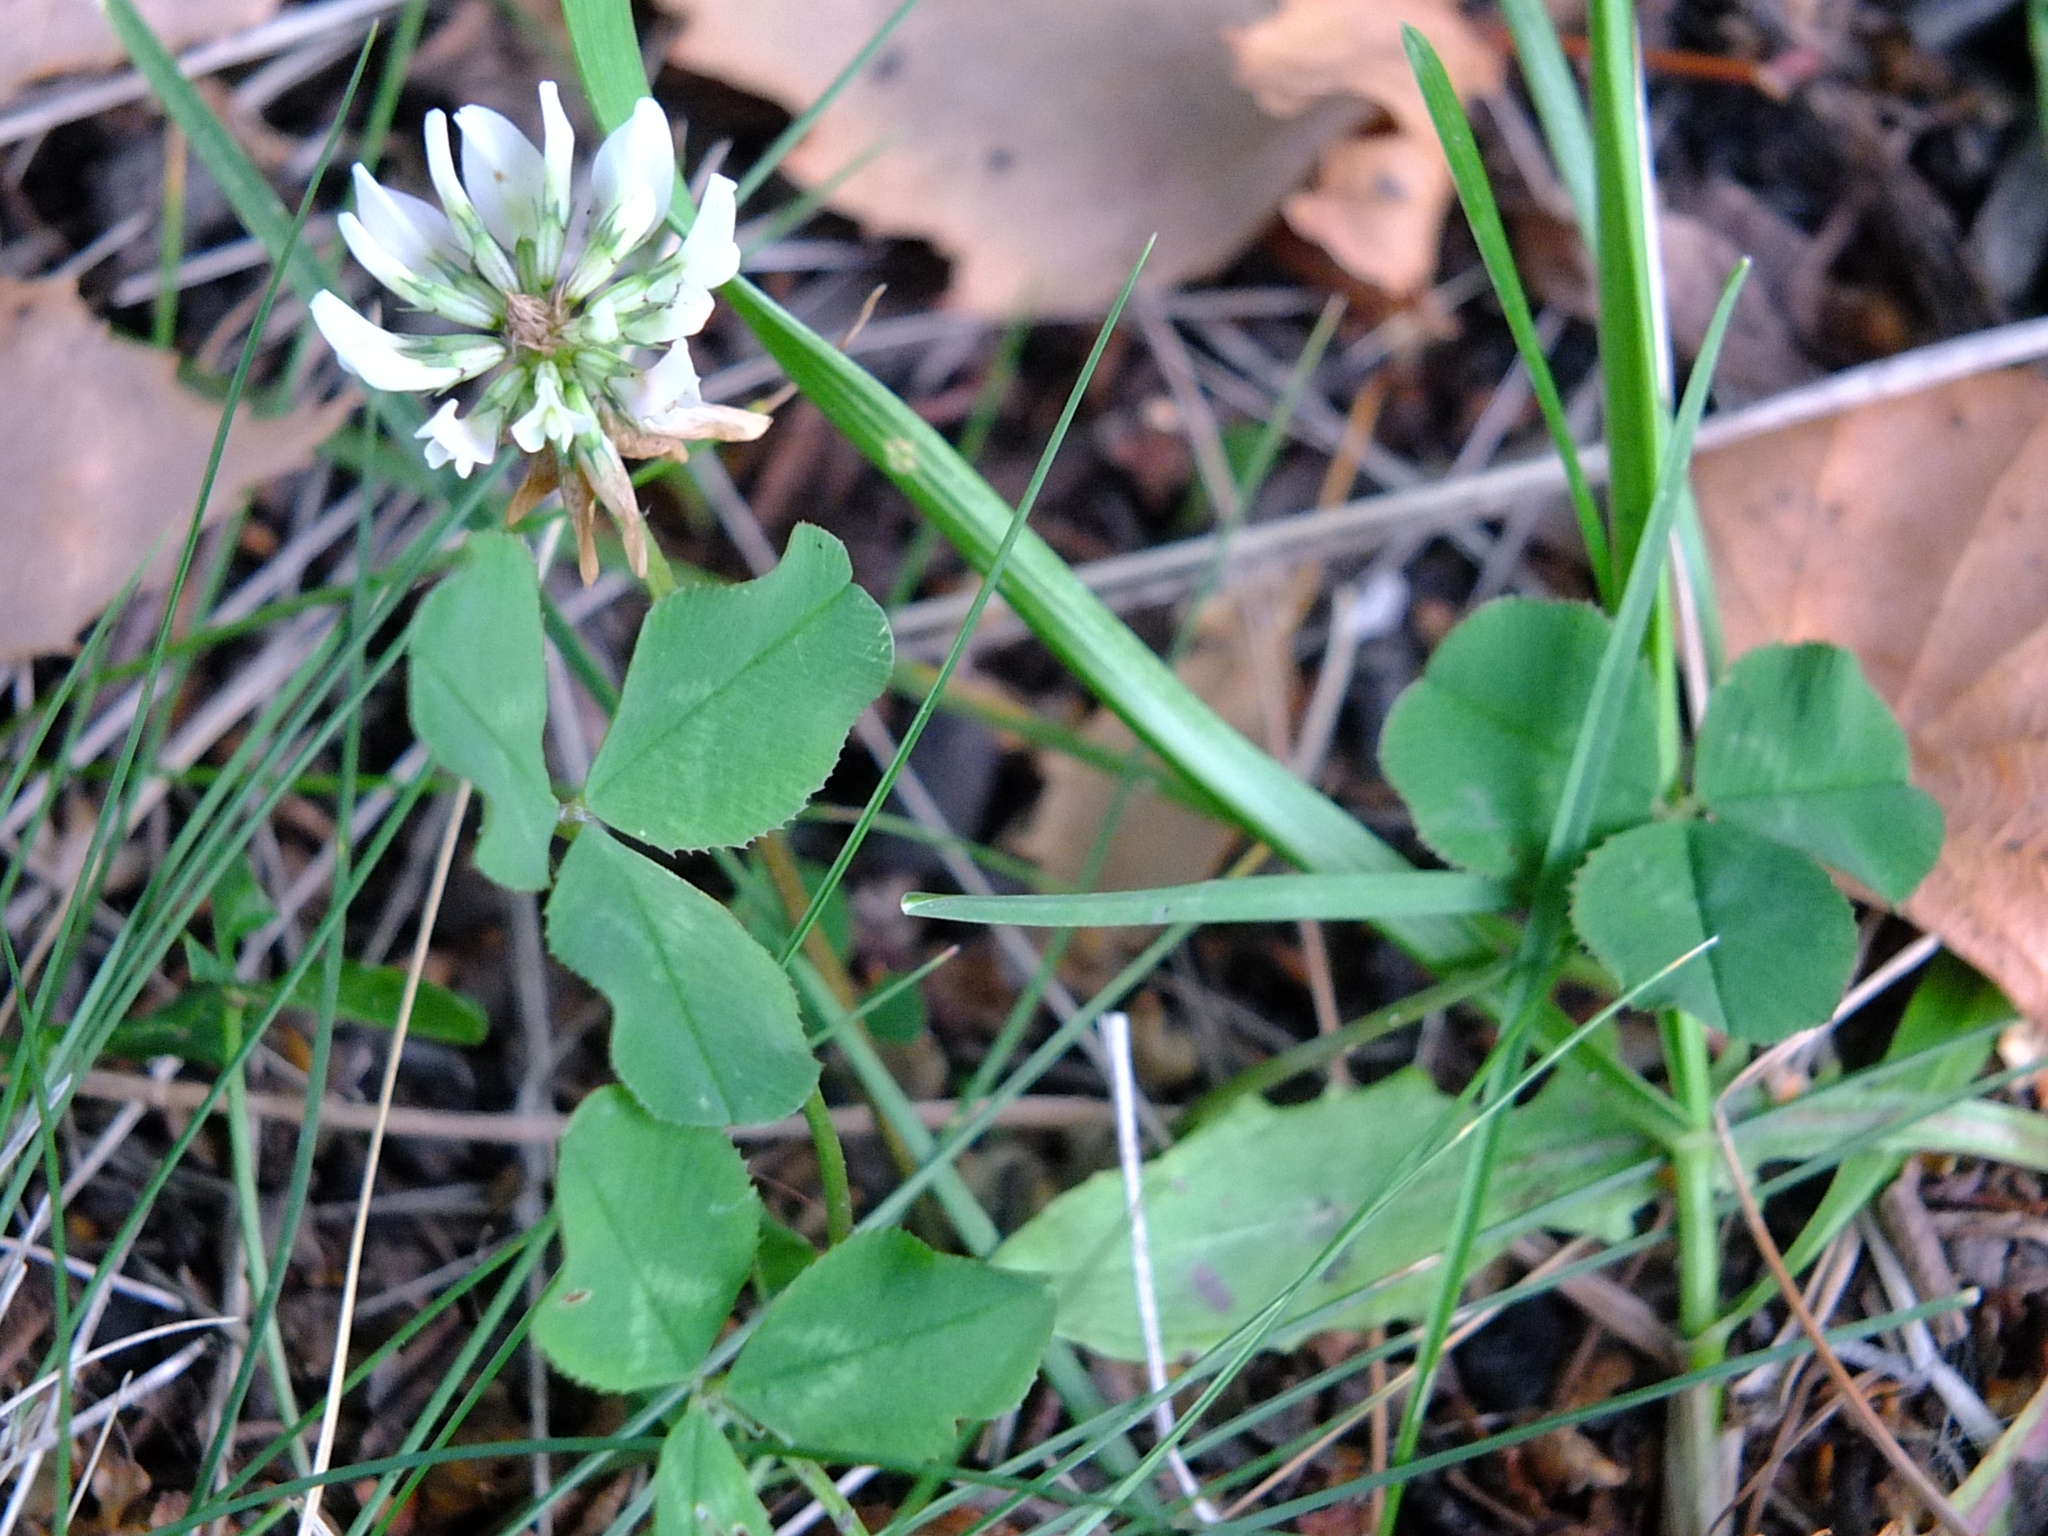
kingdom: Plantae
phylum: Tracheophyta
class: Magnoliopsida
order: Fabales
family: Fabaceae
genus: Trifolium
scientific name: Trifolium repens
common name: White clover
